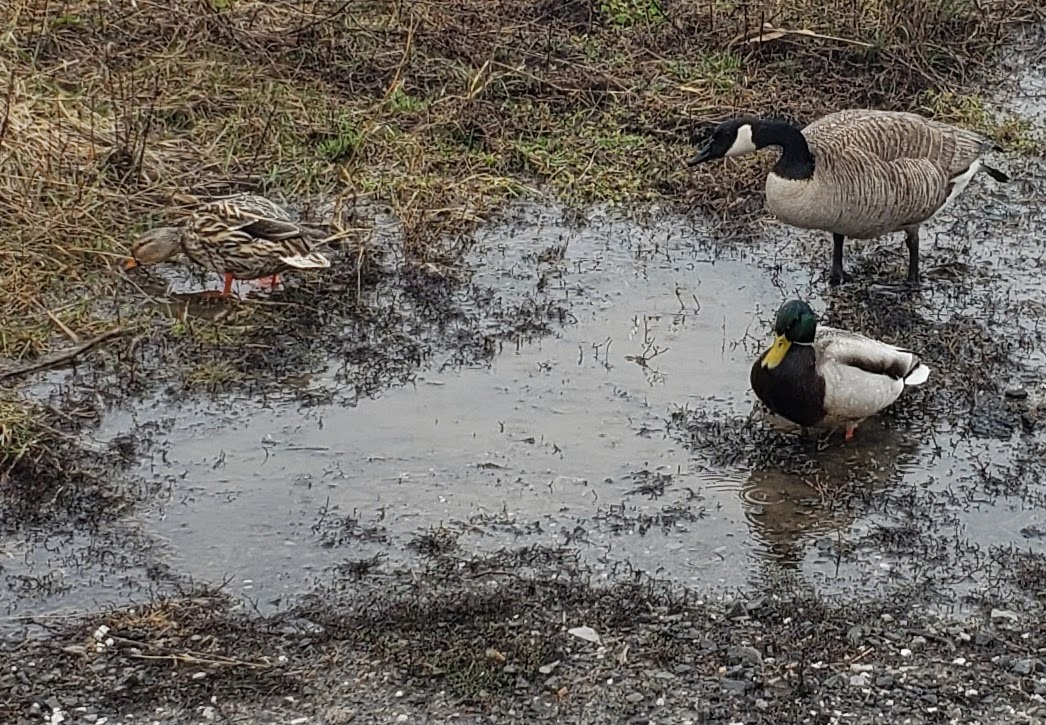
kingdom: Animalia
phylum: Chordata
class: Aves
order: Anseriformes
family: Anatidae
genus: Anas
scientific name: Anas platyrhynchos
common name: Mallard
